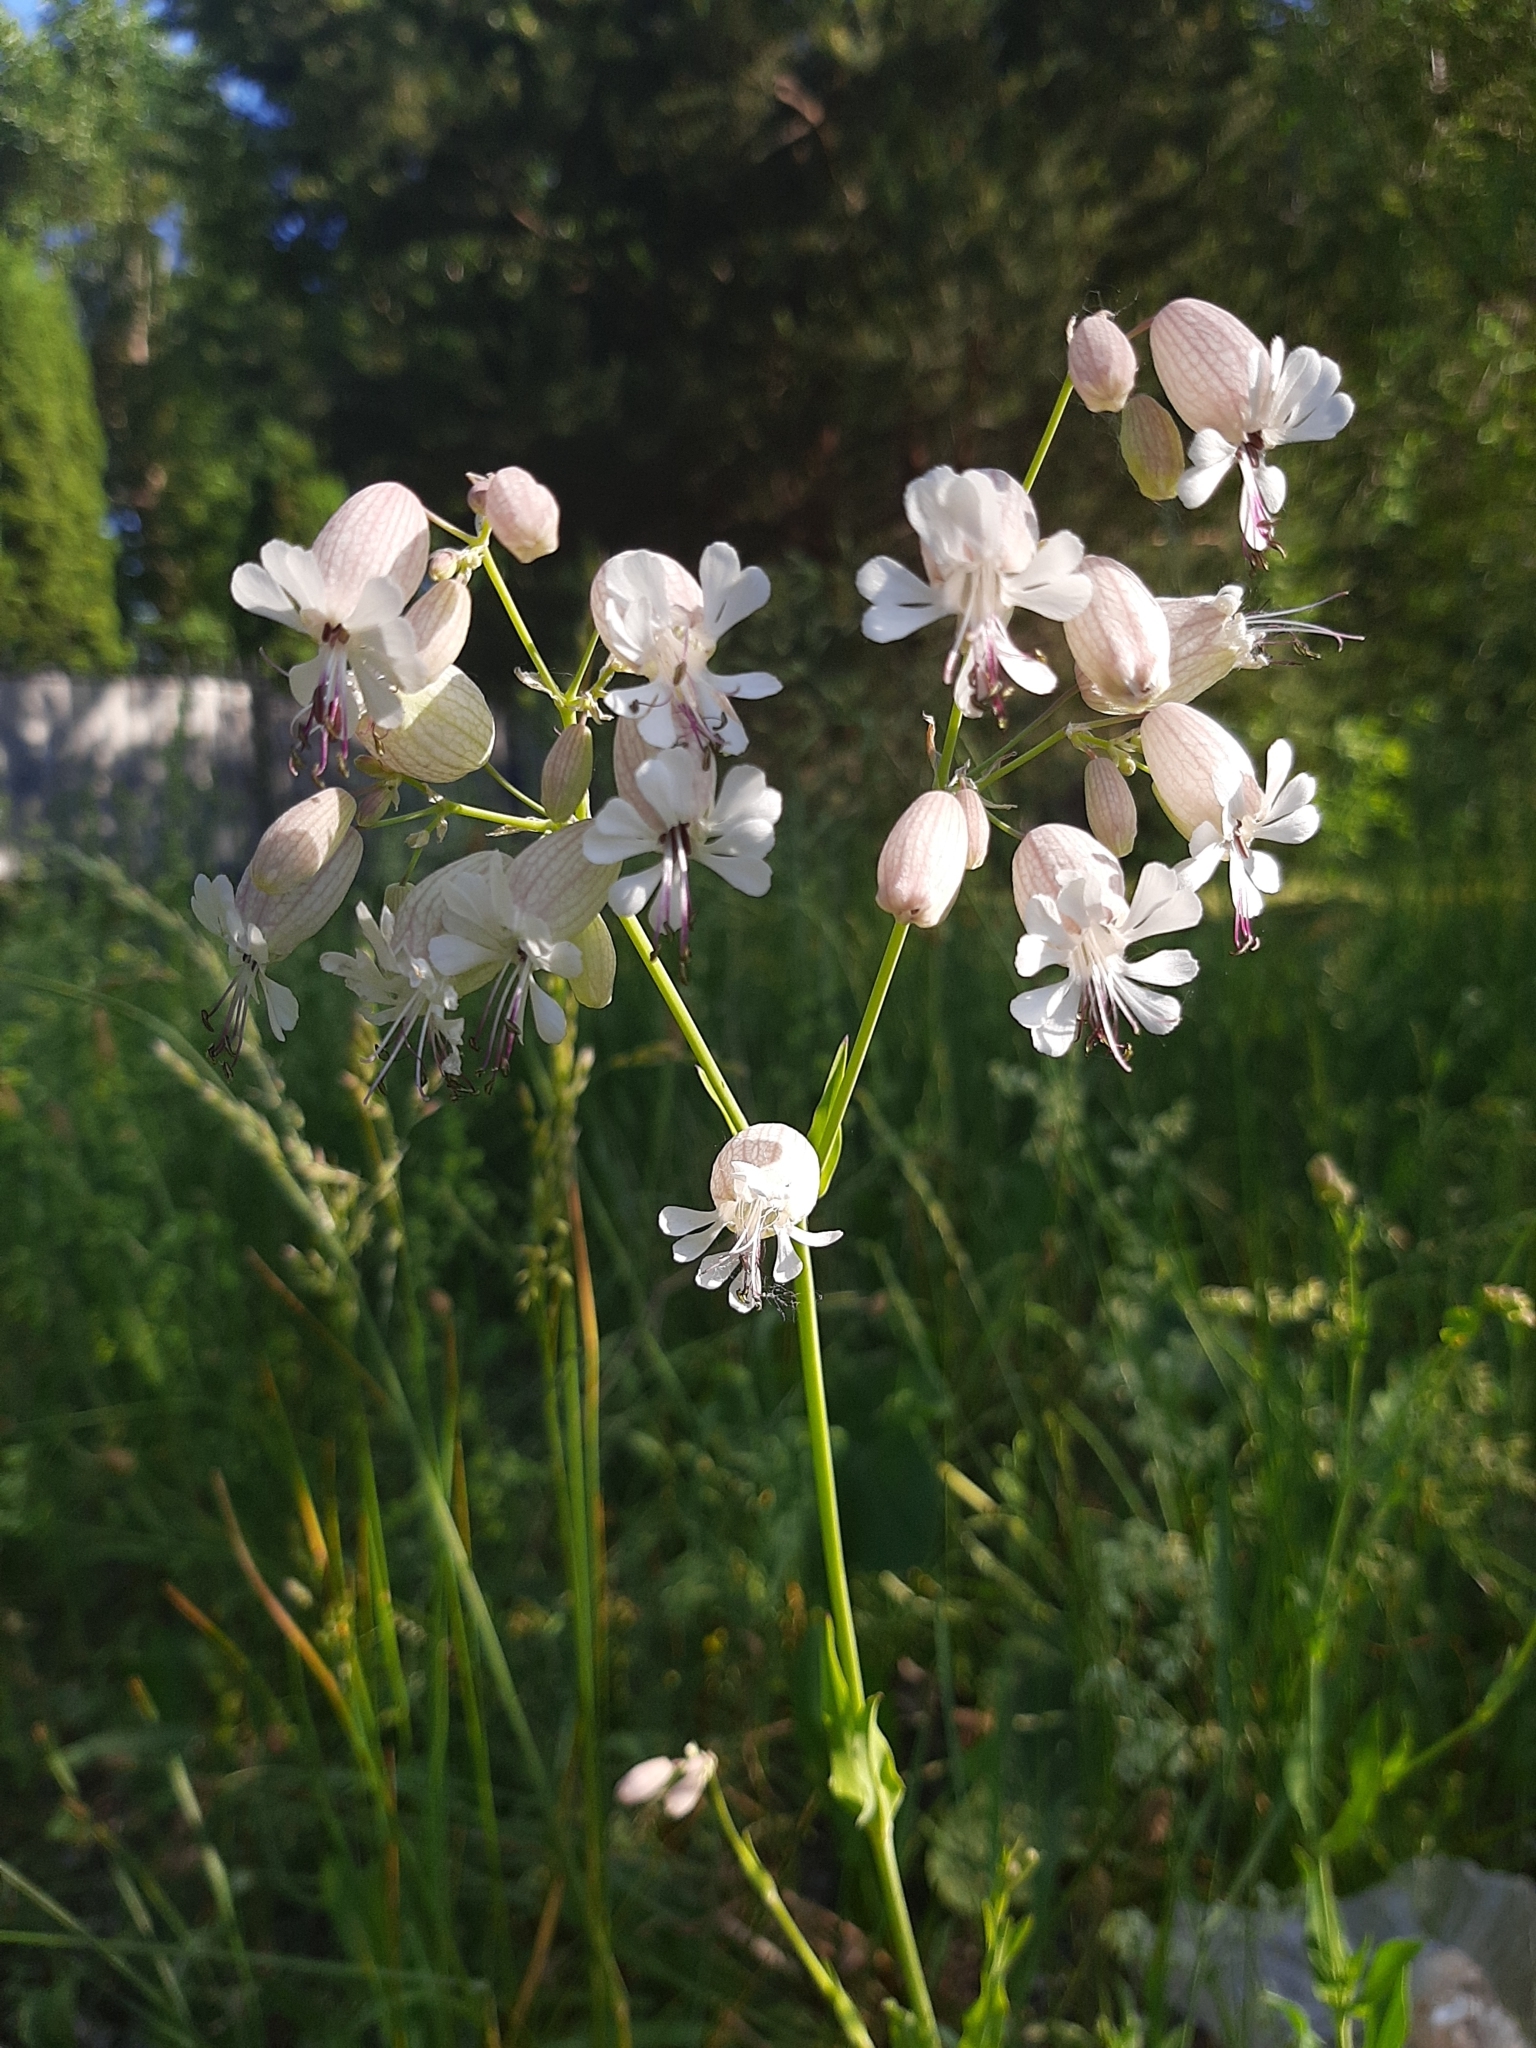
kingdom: Plantae
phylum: Tracheophyta
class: Magnoliopsida
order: Caryophyllales
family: Caryophyllaceae
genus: Silene
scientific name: Silene vulgaris
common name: Bladder campion
